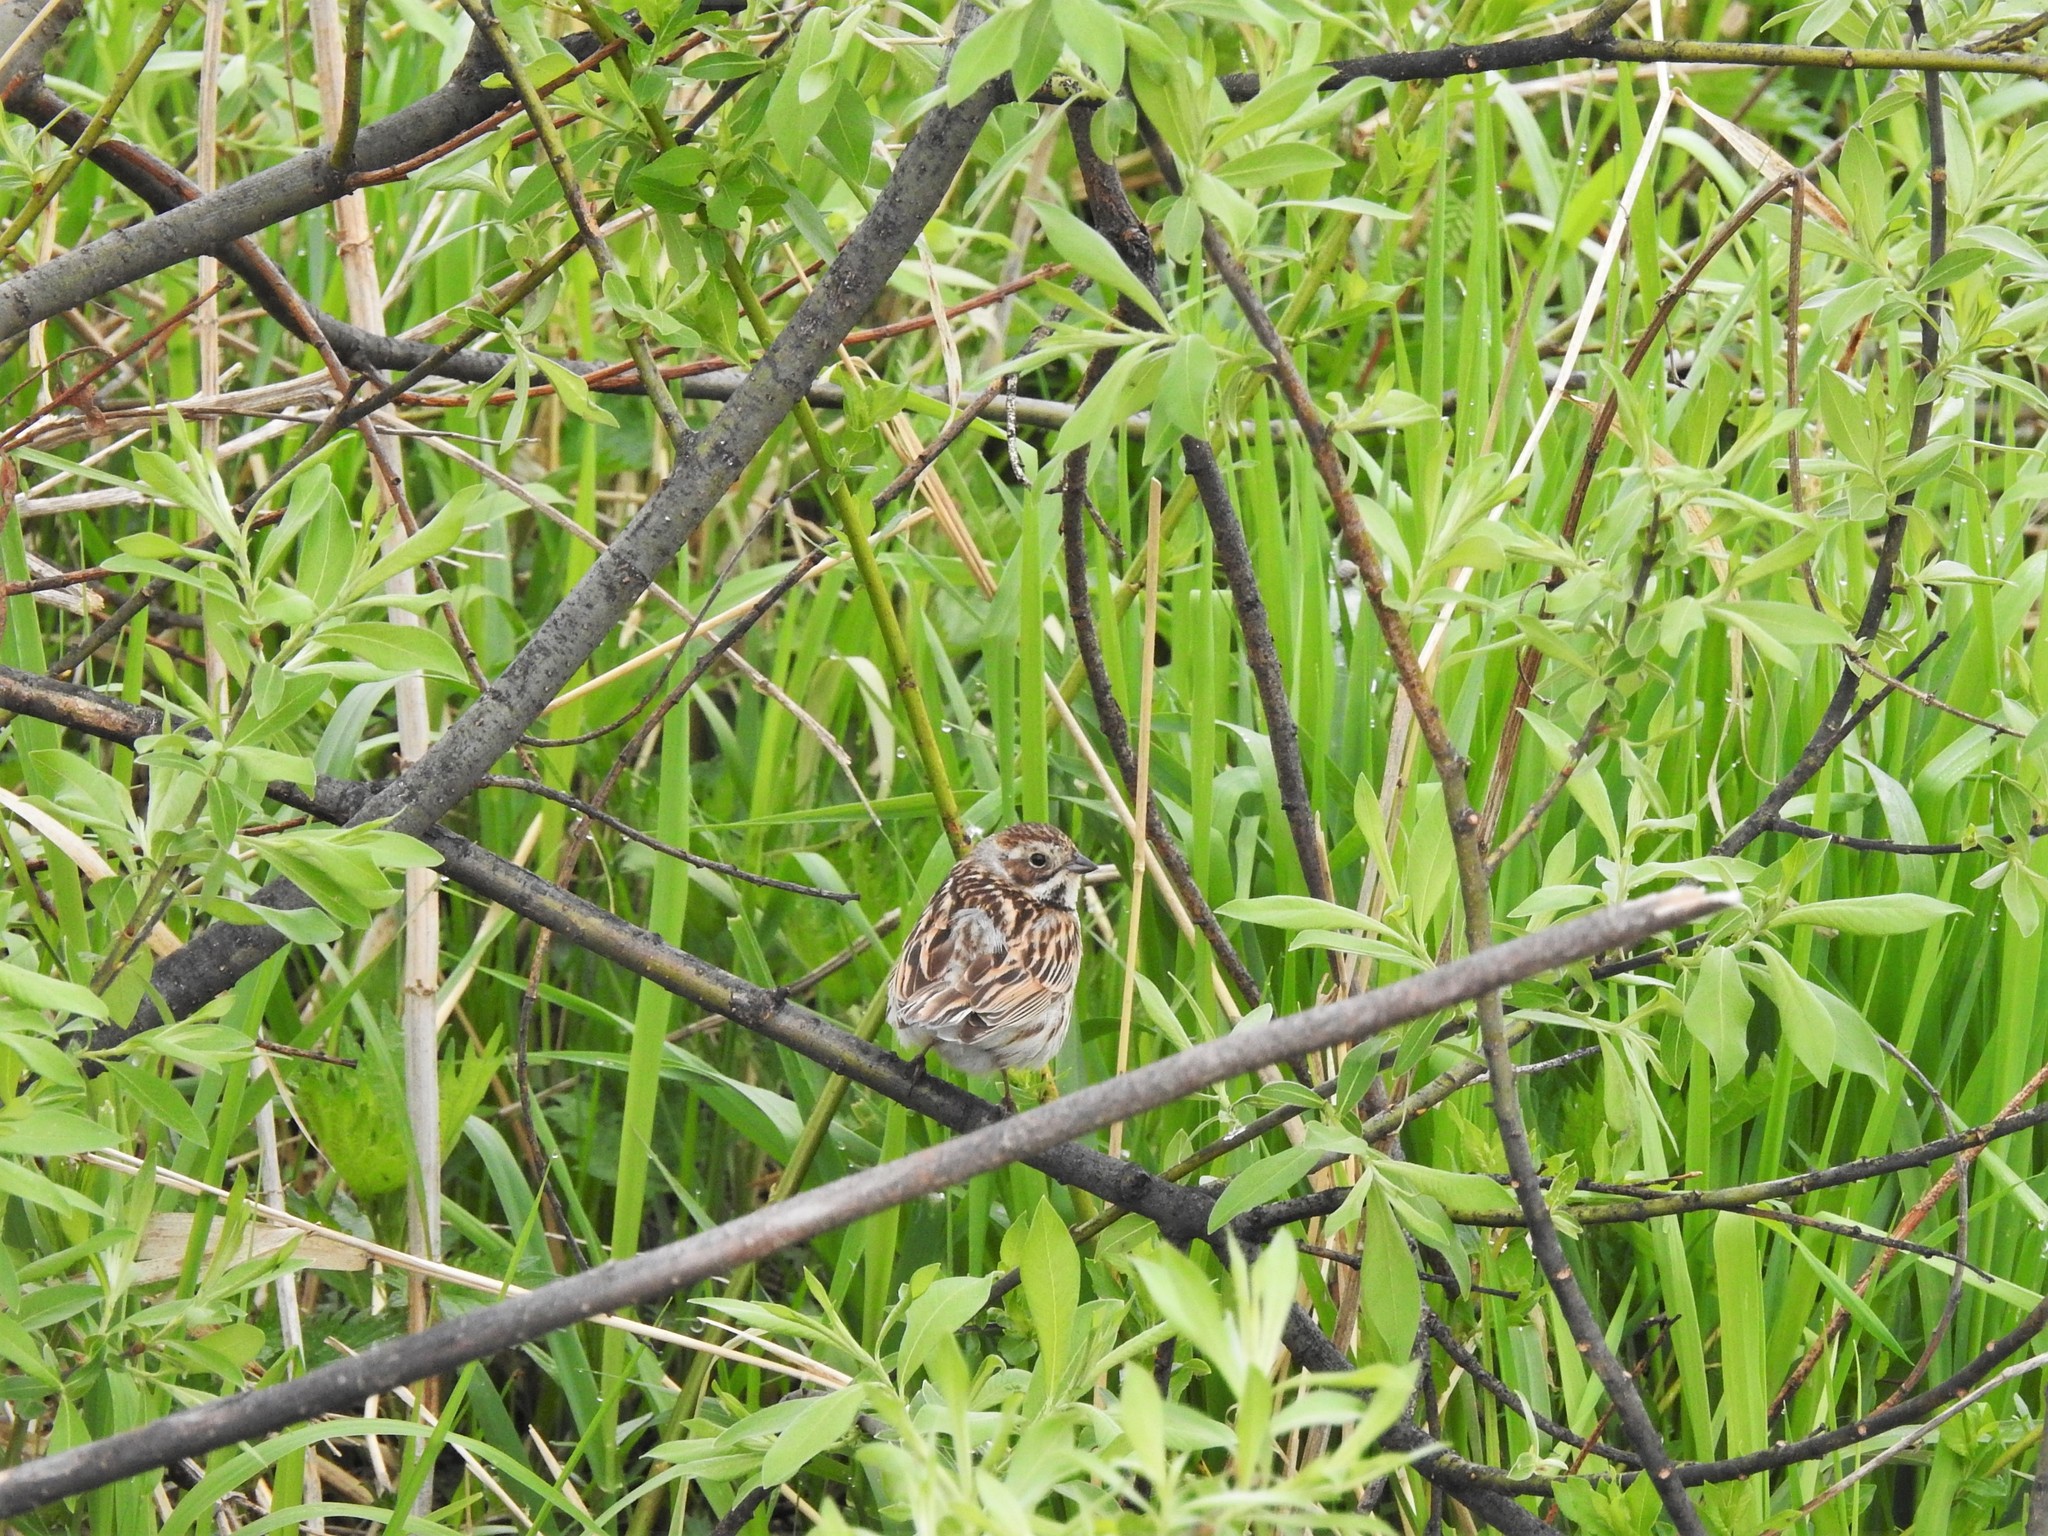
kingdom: Animalia
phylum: Chordata
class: Aves
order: Passeriformes
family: Emberizidae
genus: Emberiza
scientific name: Emberiza schoeniclus
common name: Reed bunting
